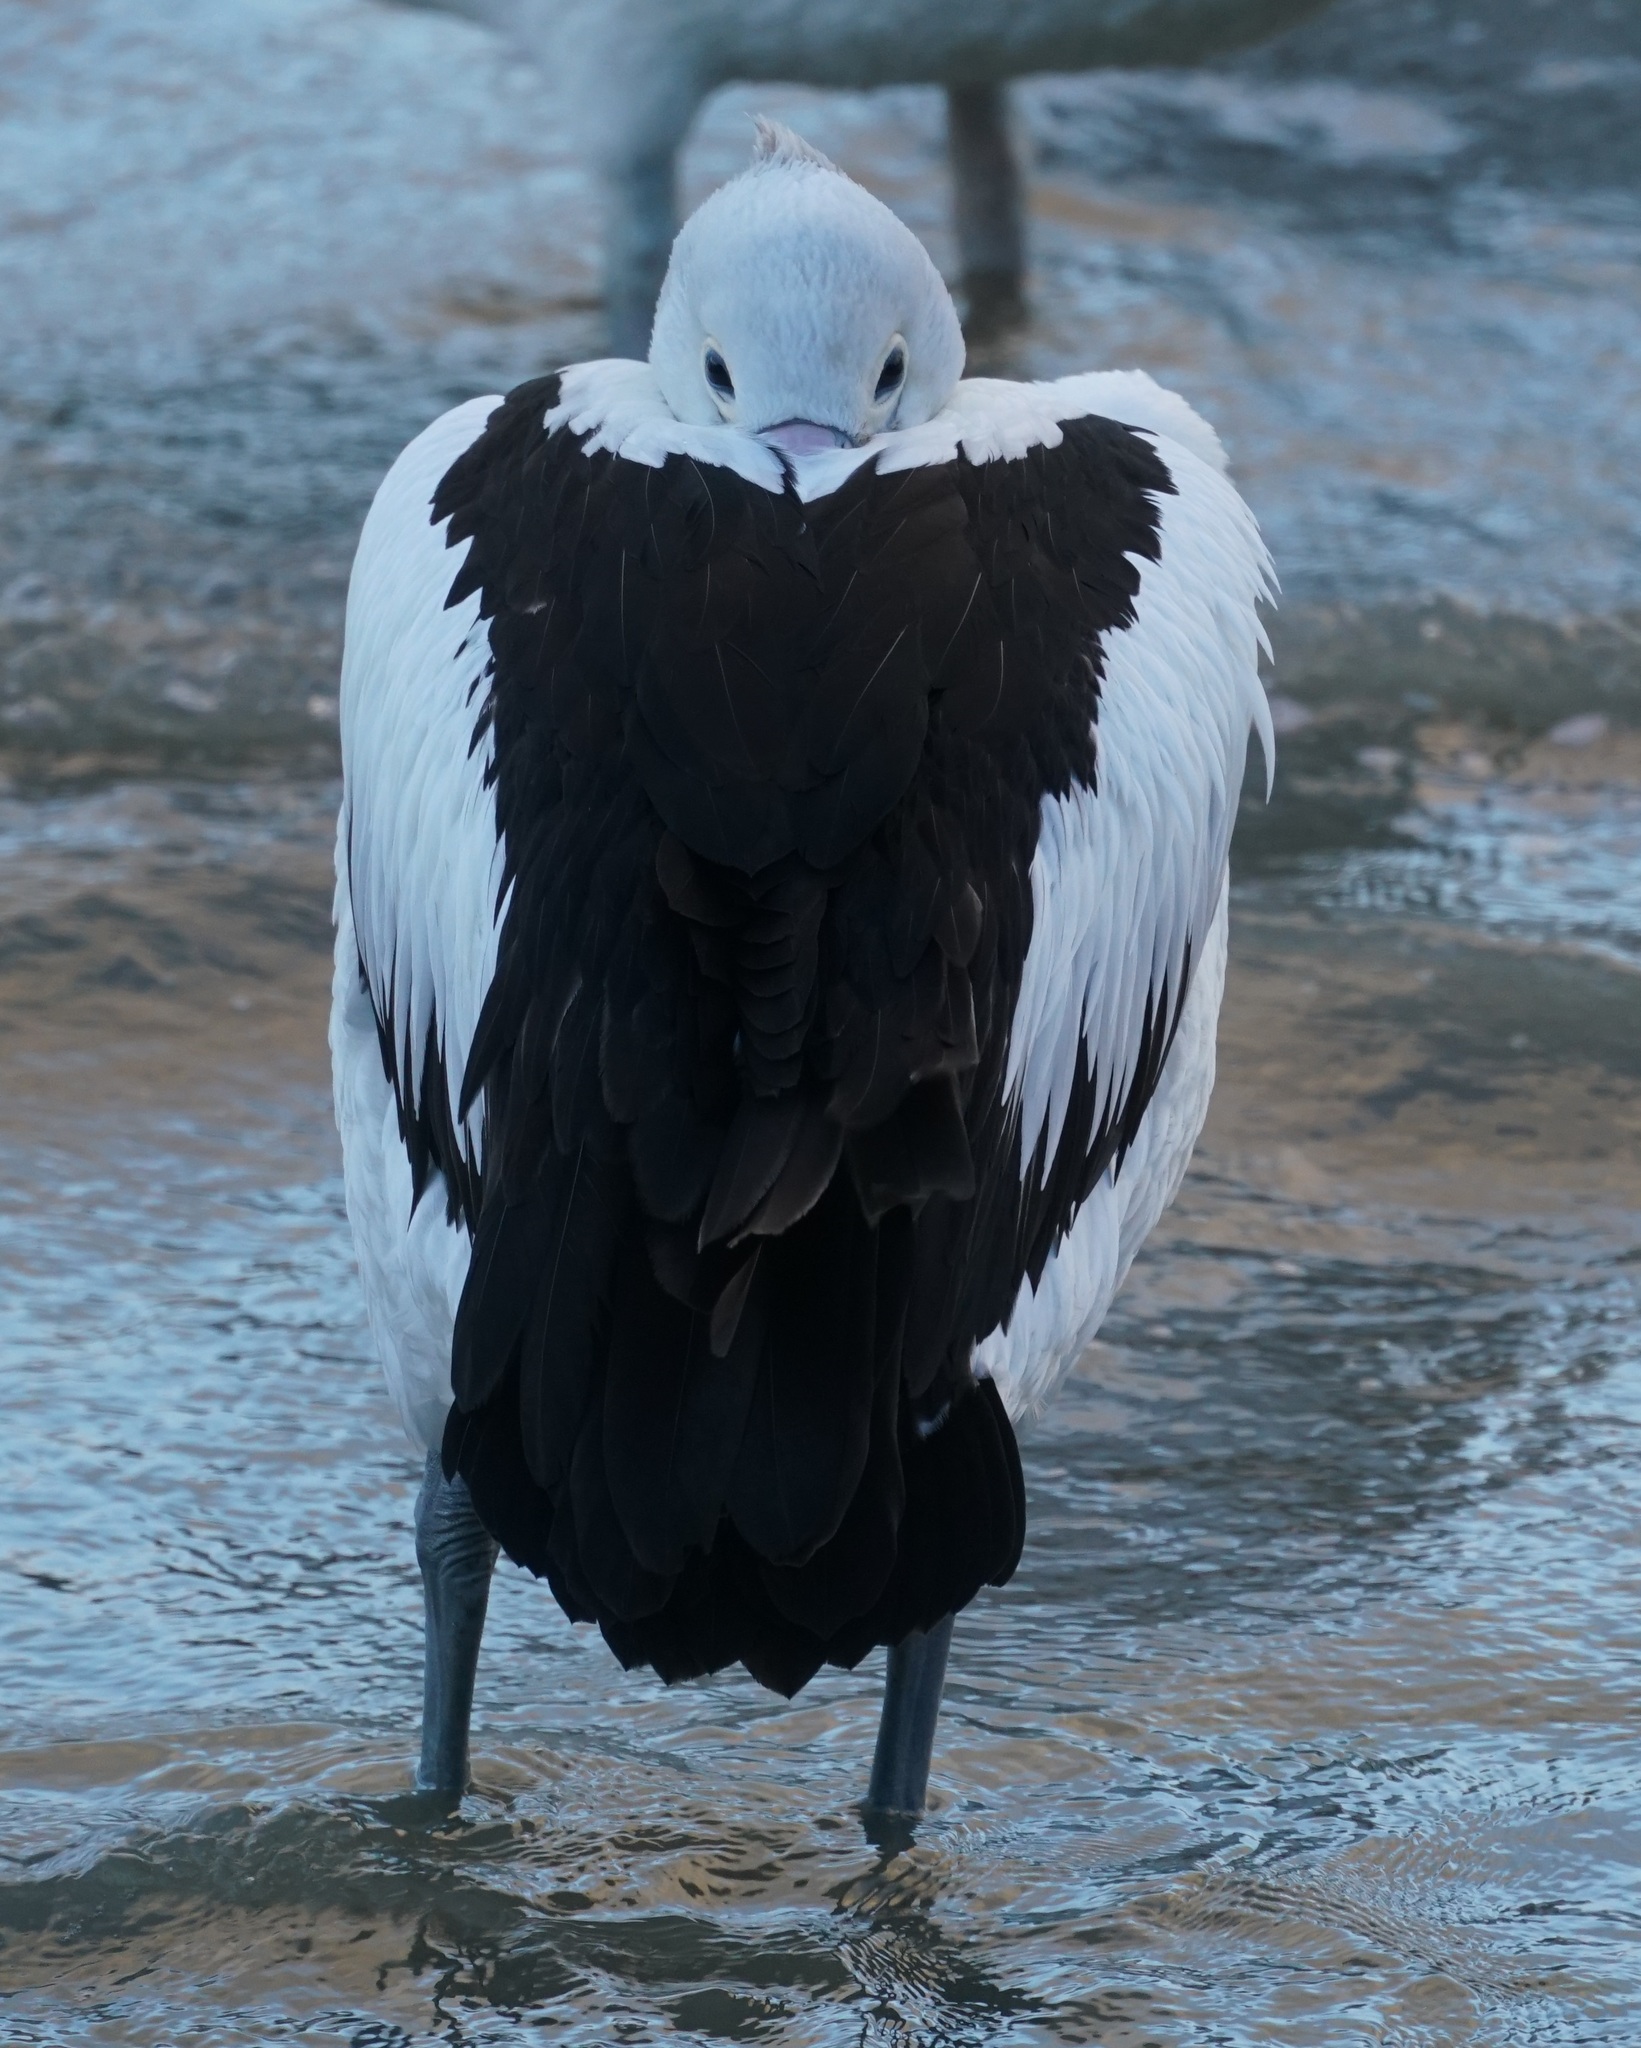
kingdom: Animalia
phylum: Chordata
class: Aves
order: Pelecaniformes
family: Pelecanidae
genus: Pelecanus
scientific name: Pelecanus conspicillatus
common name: Australian pelican
